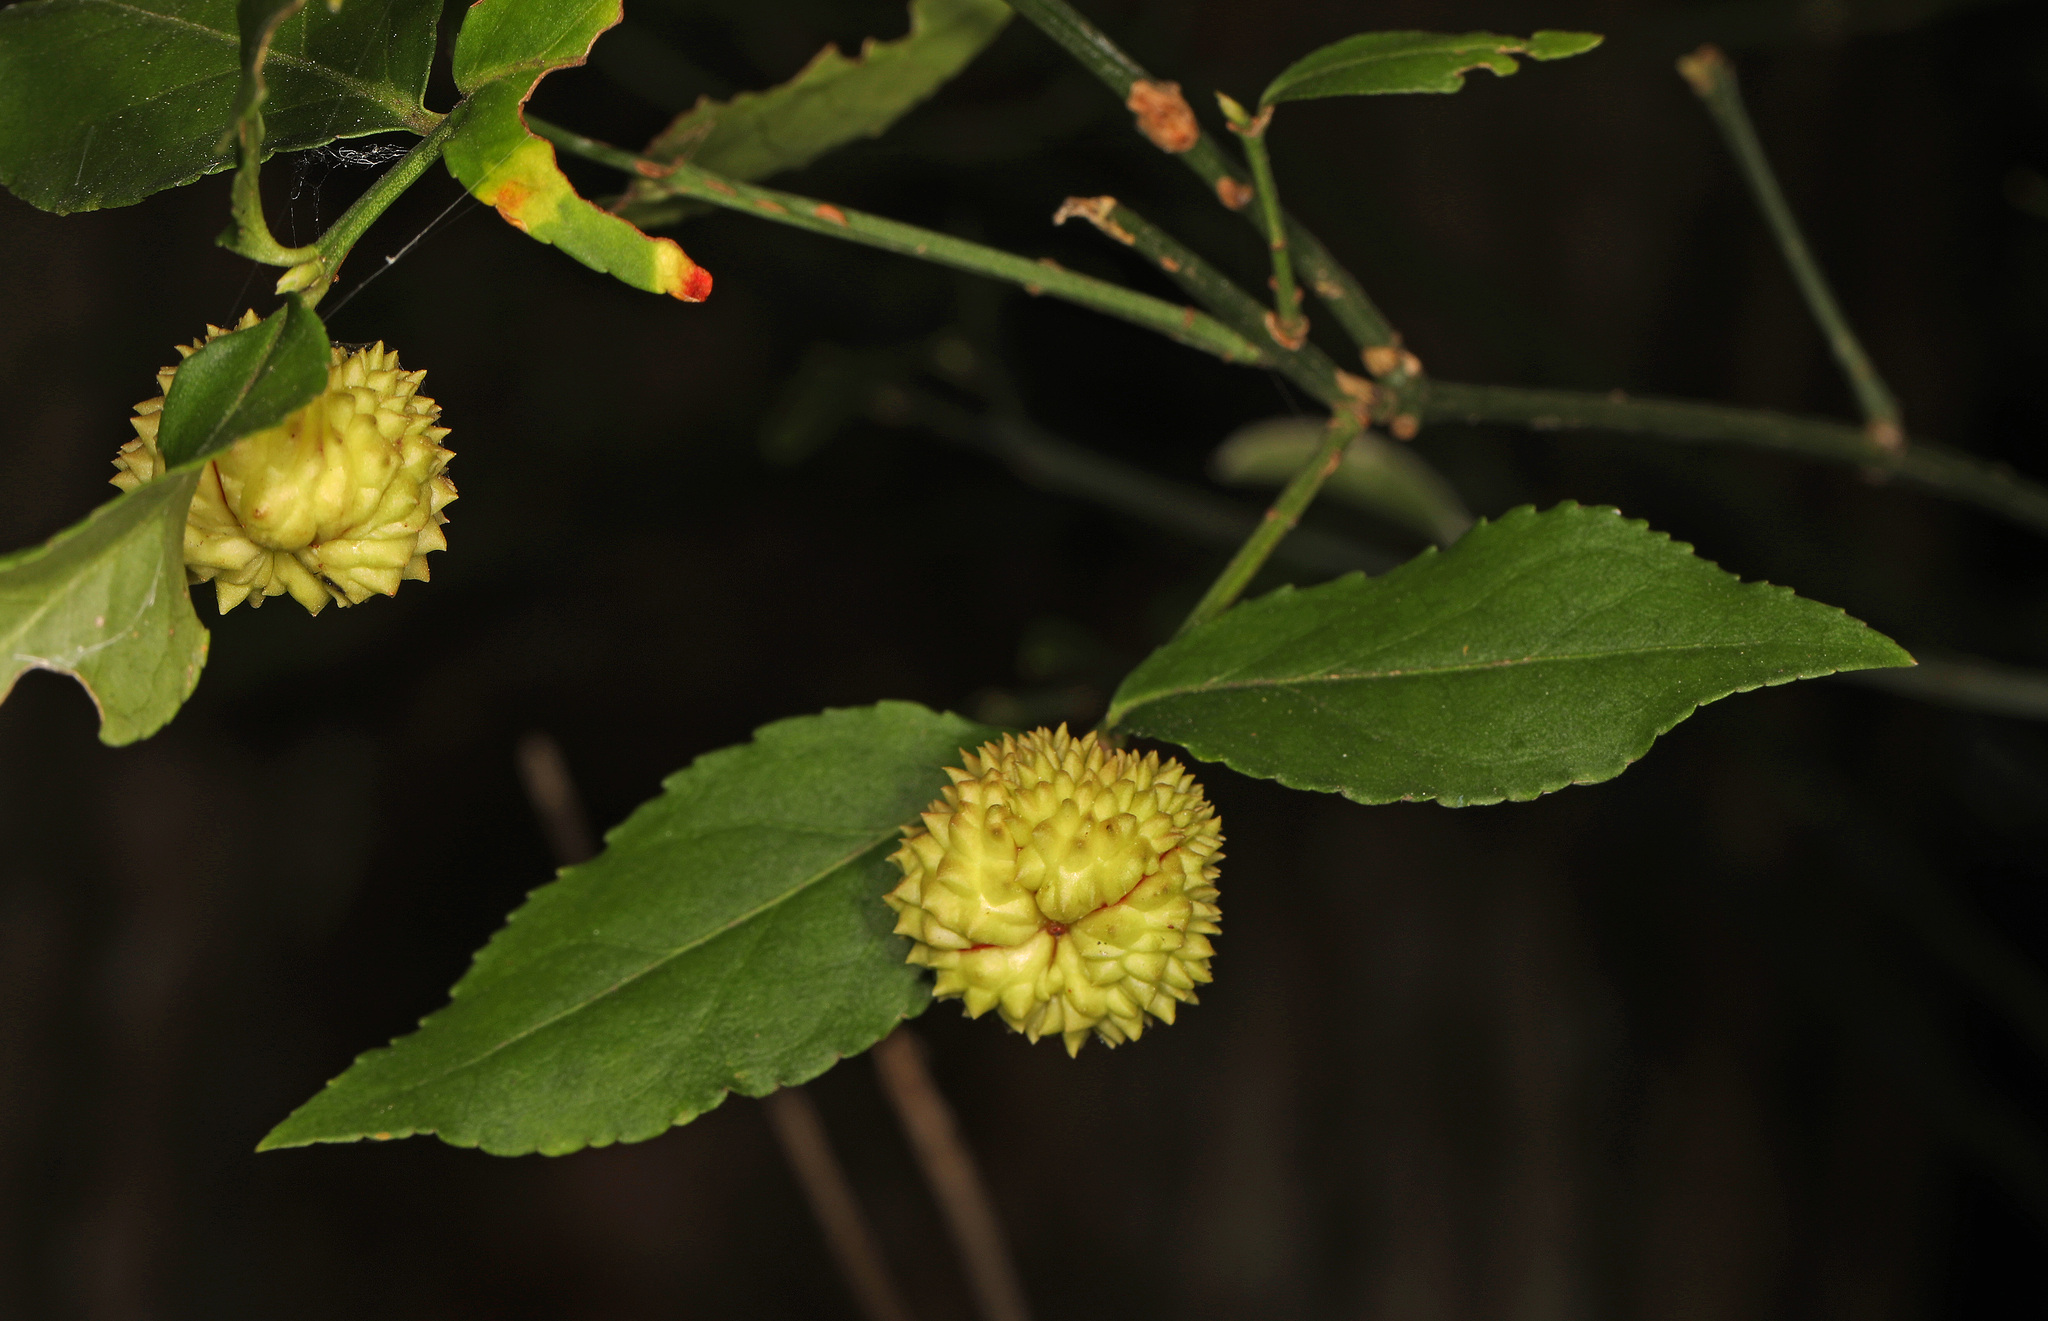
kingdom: Plantae
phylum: Tracheophyta
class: Magnoliopsida
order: Celastrales
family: Celastraceae
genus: Euonymus
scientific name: Euonymus americanus
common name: Bursting-heart
